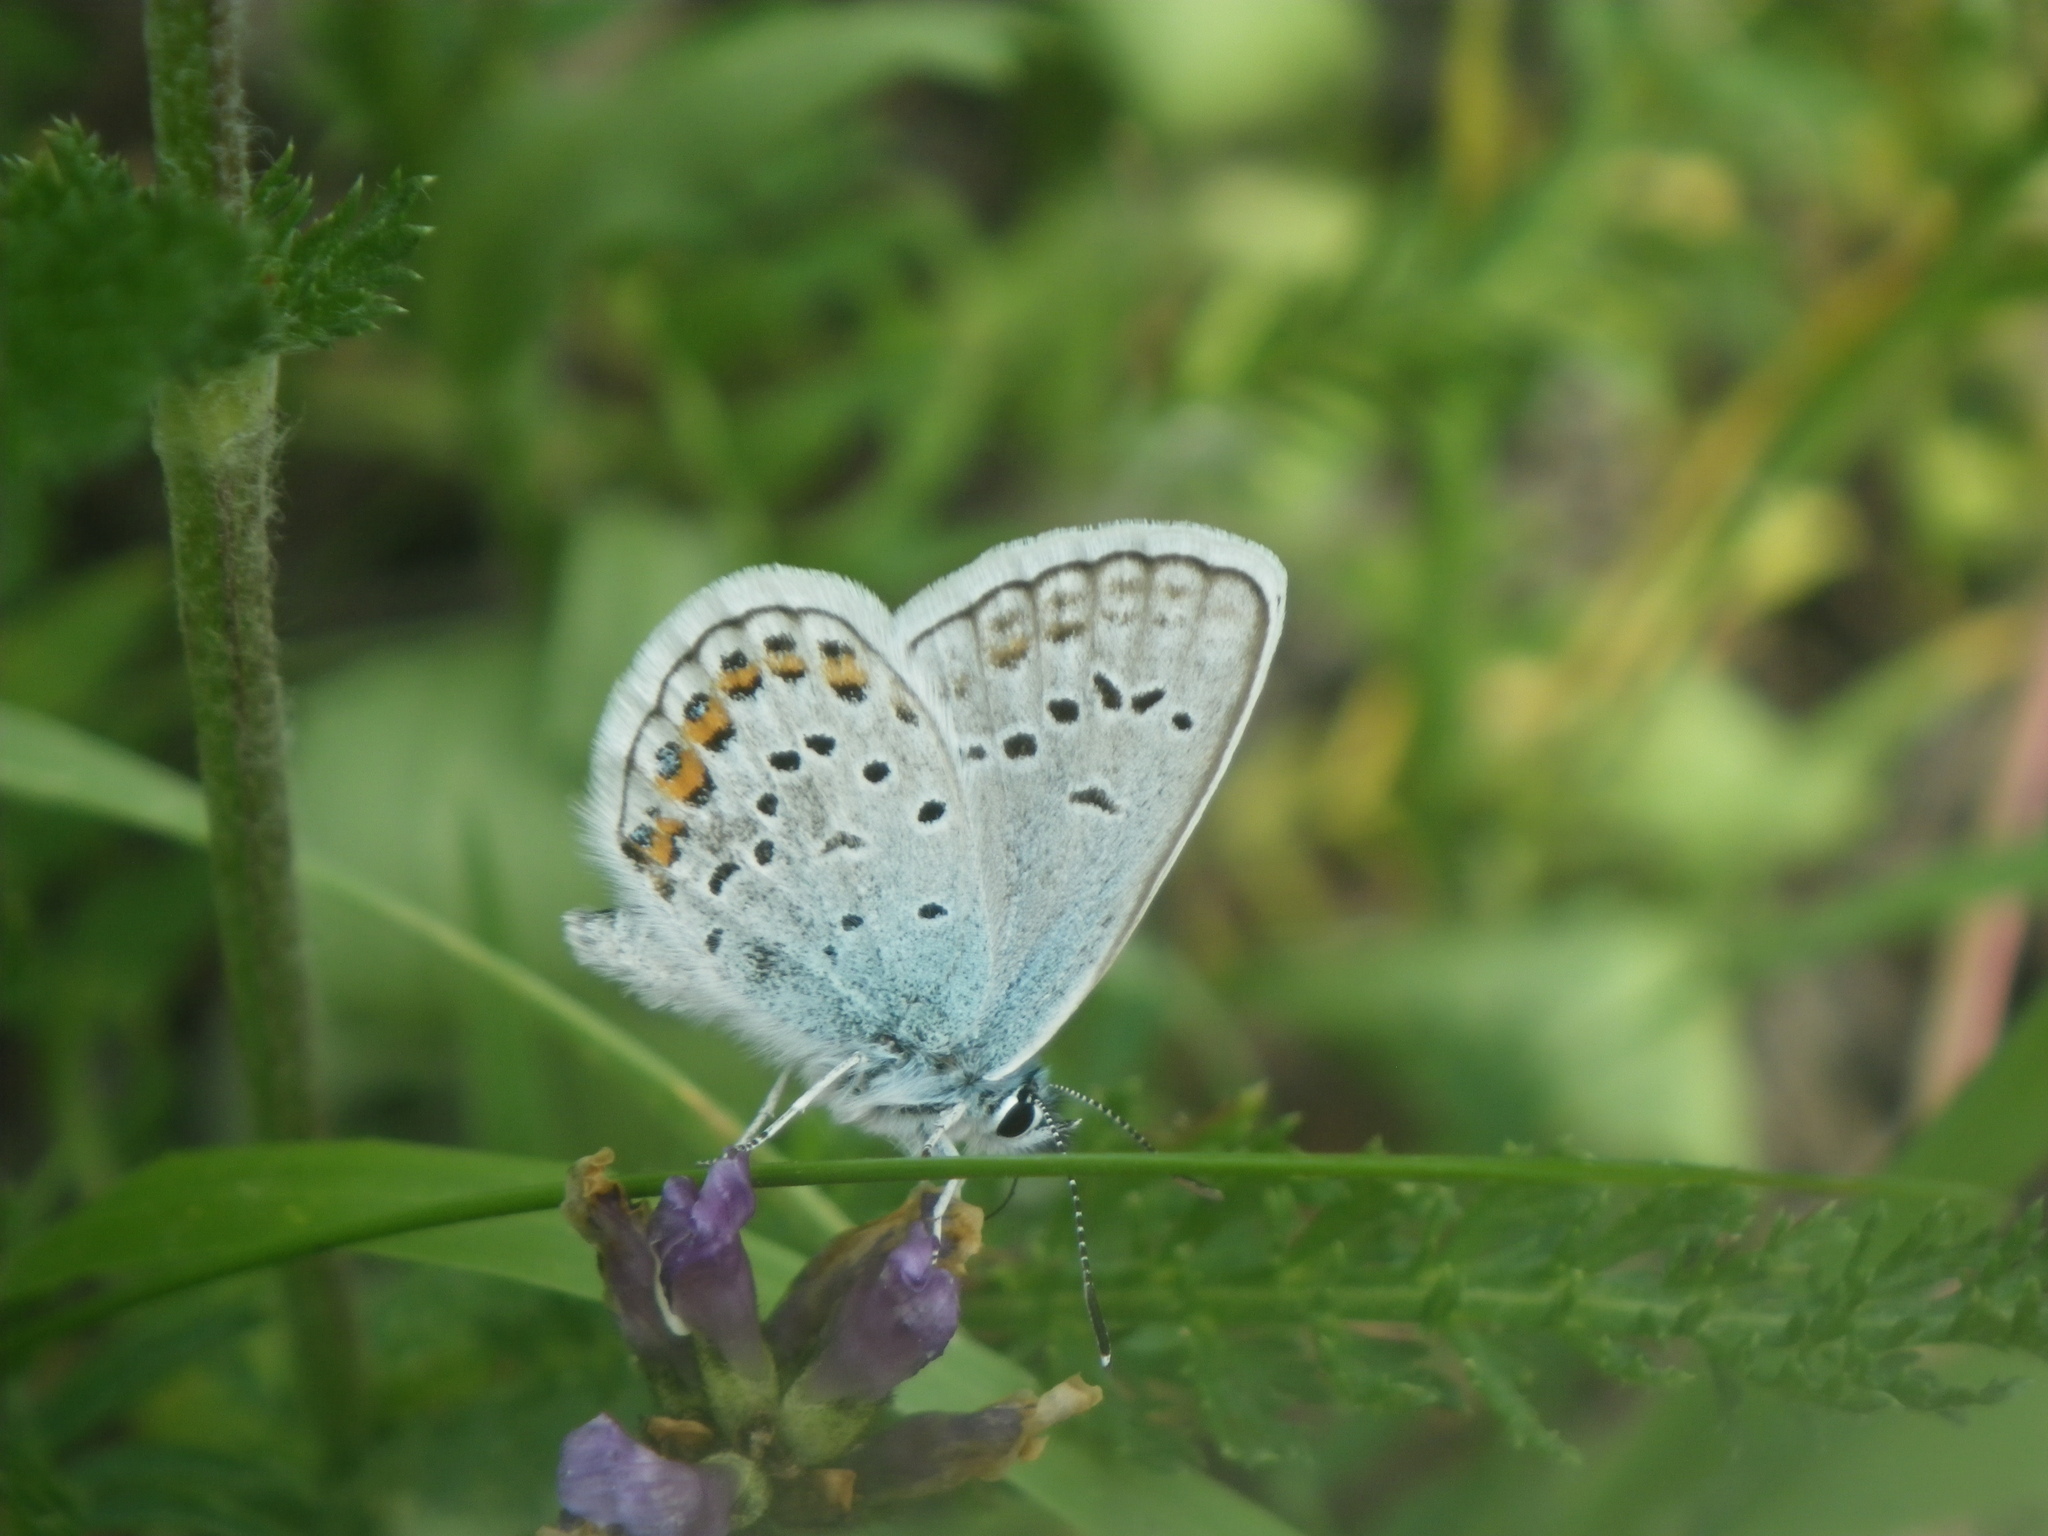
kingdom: Animalia
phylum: Arthropoda
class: Insecta
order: Lepidoptera
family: Lycaenidae
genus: Plebejus
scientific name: Plebejus argus
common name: Silver-studded blue
